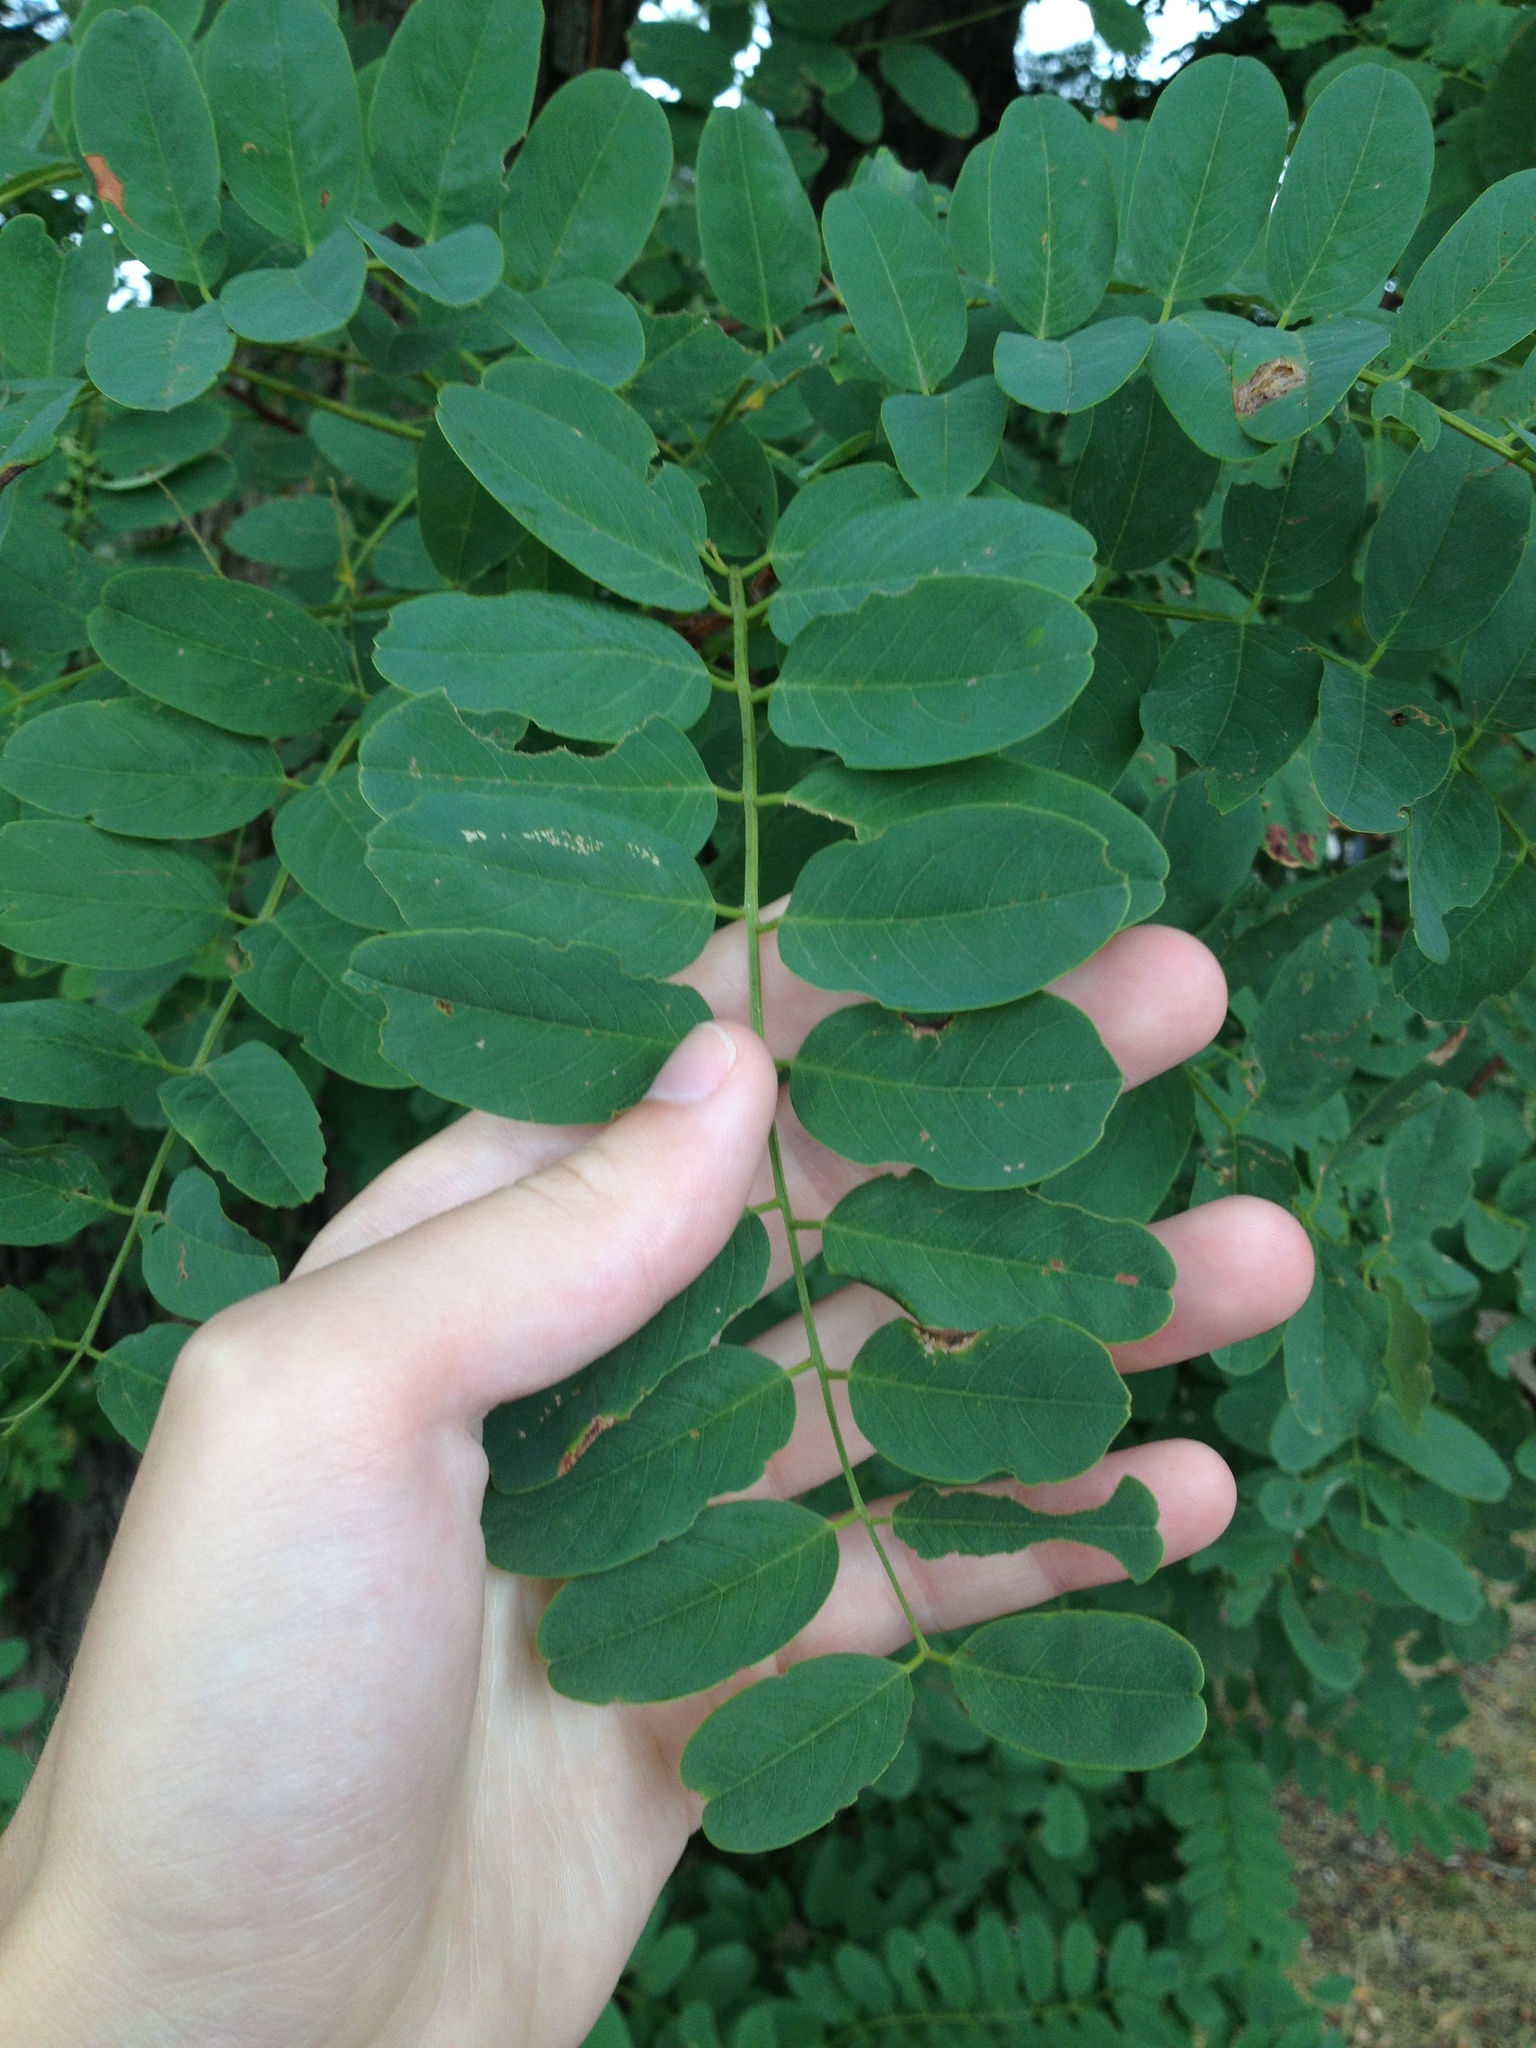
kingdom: Plantae
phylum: Tracheophyta
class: Magnoliopsida
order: Fabales
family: Fabaceae
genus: Robinia
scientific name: Robinia pseudoacacia
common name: Black locust
